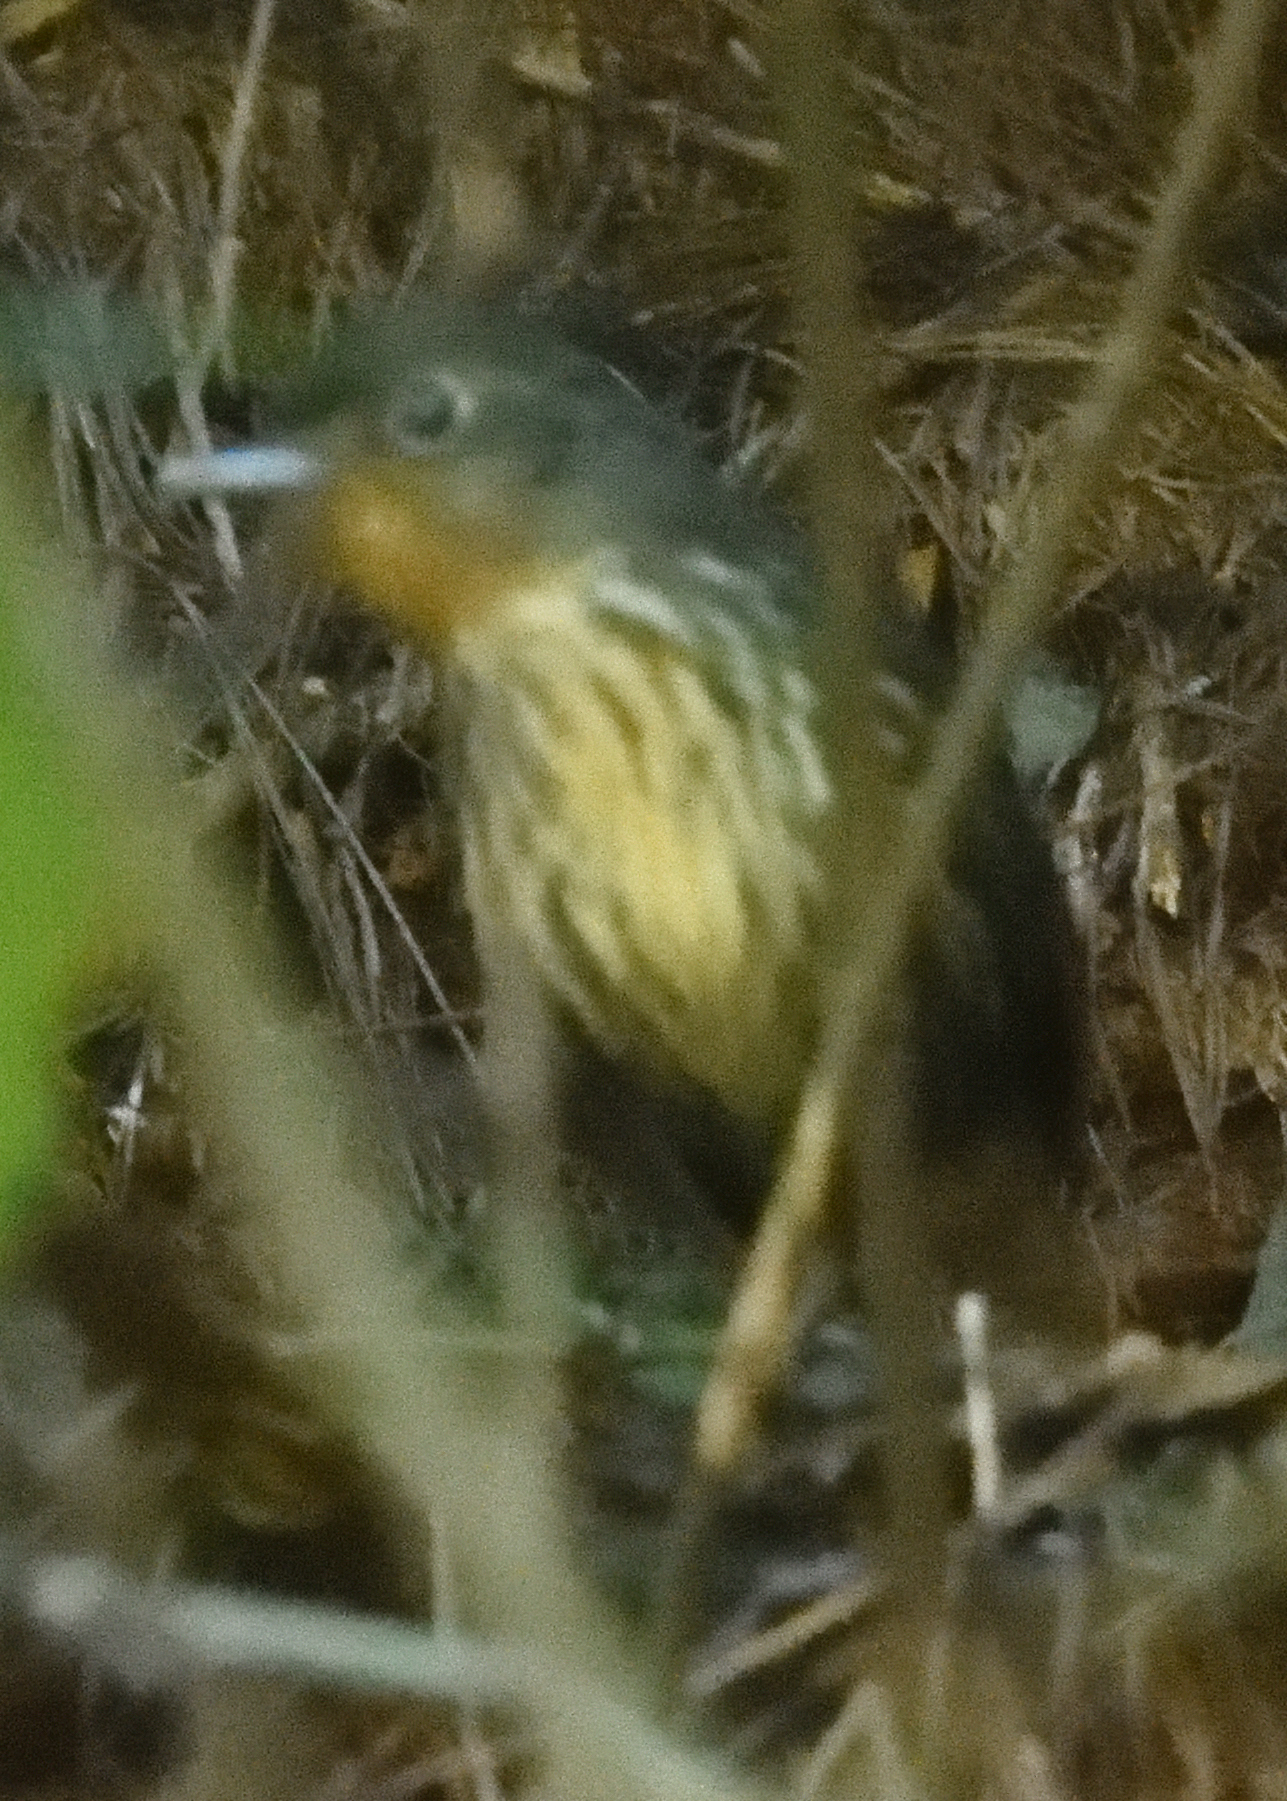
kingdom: Animalia
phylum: Chordata
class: Aves
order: Passeriformes
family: Grallariidae
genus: Grallaria
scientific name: Grallaria bangsi
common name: Santa marta antpitta
